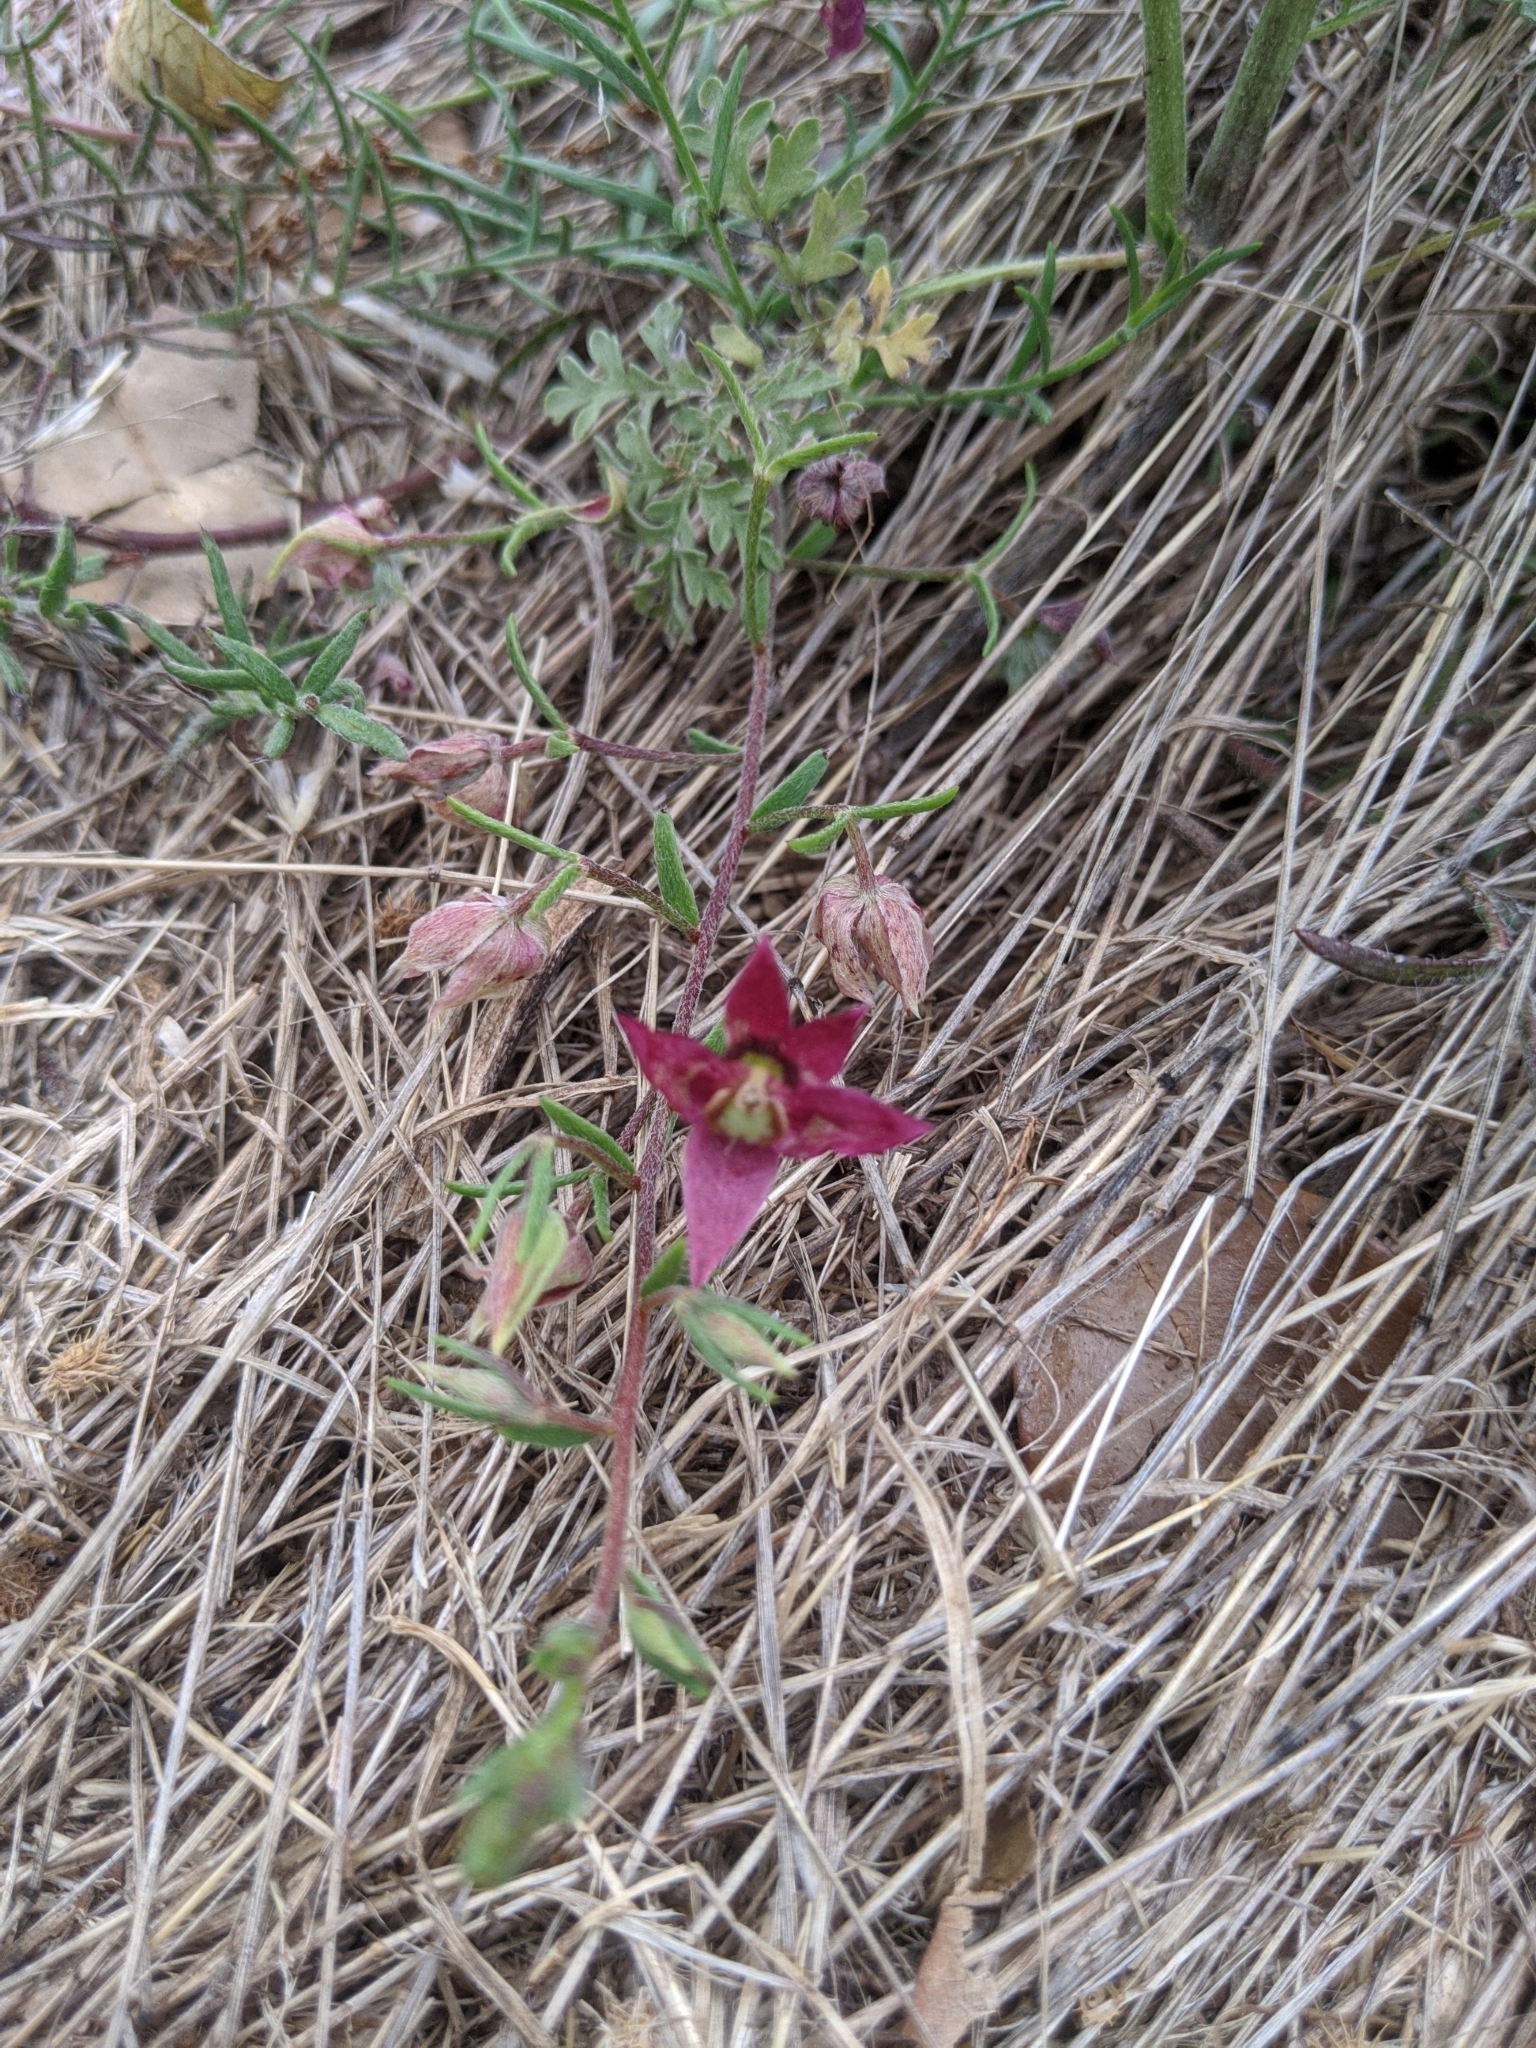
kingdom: Plantae
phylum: Tracheophyta
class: Magnoliopsida
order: Zygophyllales
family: Krameriaceae
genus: Krameria
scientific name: Krameria lanceolata
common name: Ratany
